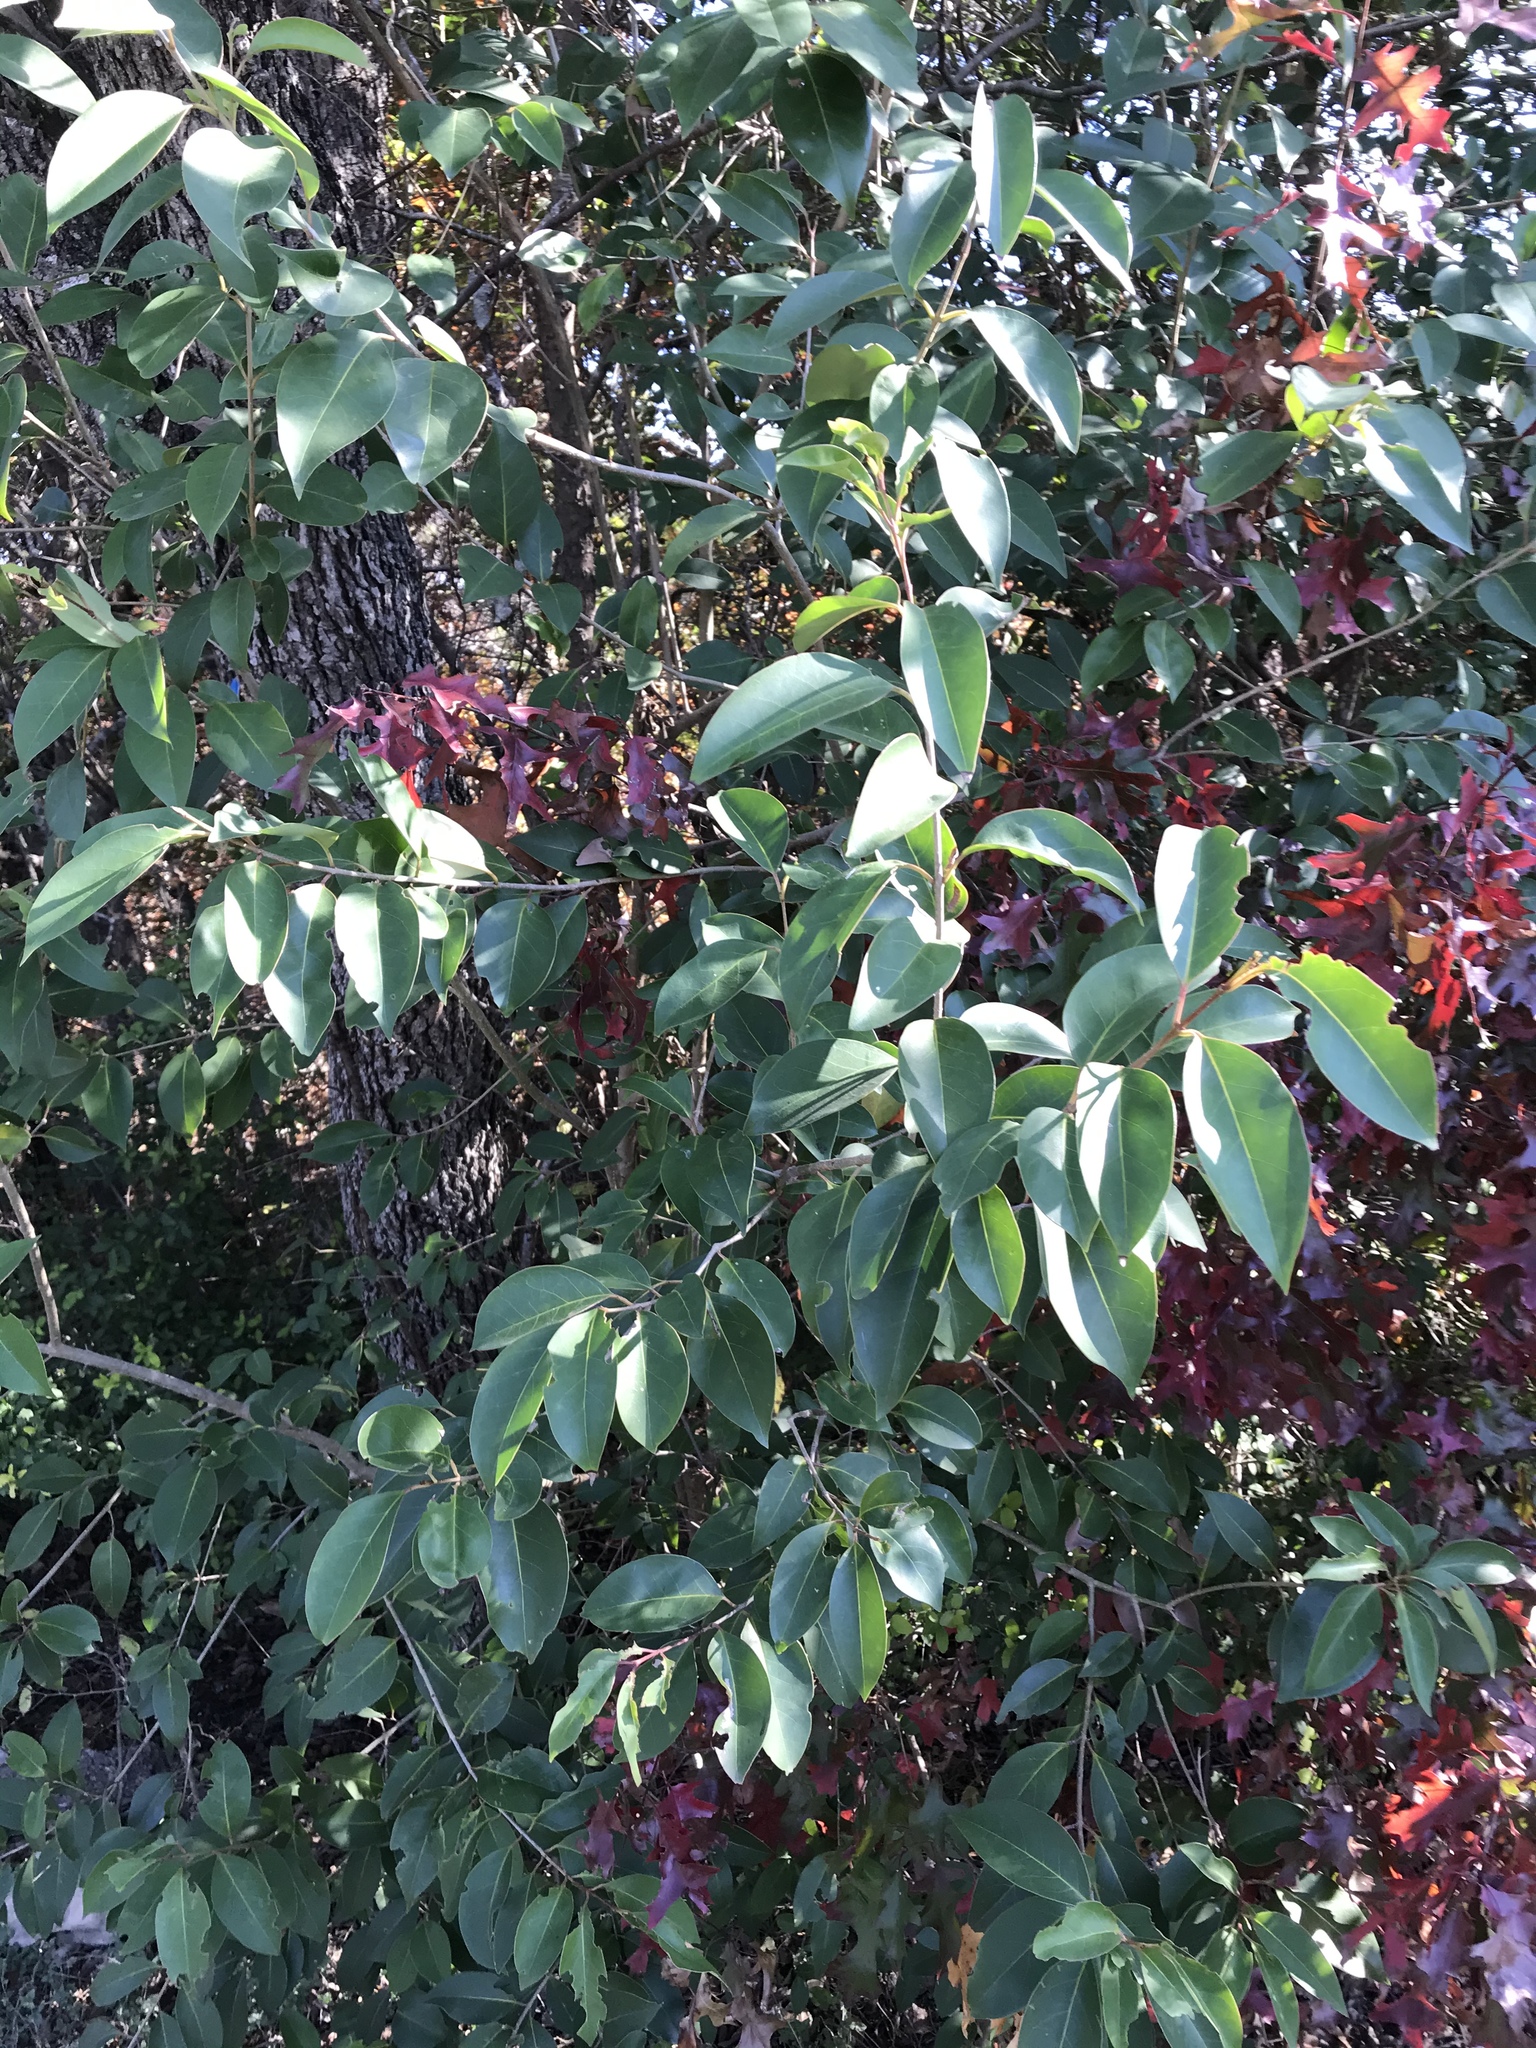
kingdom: Plantae
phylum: Tracheophyta
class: Magnoliopsida
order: Lamiales
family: Oleaceae
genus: Ligustrum
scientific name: Ligustrum lucidum
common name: Glossy privet
